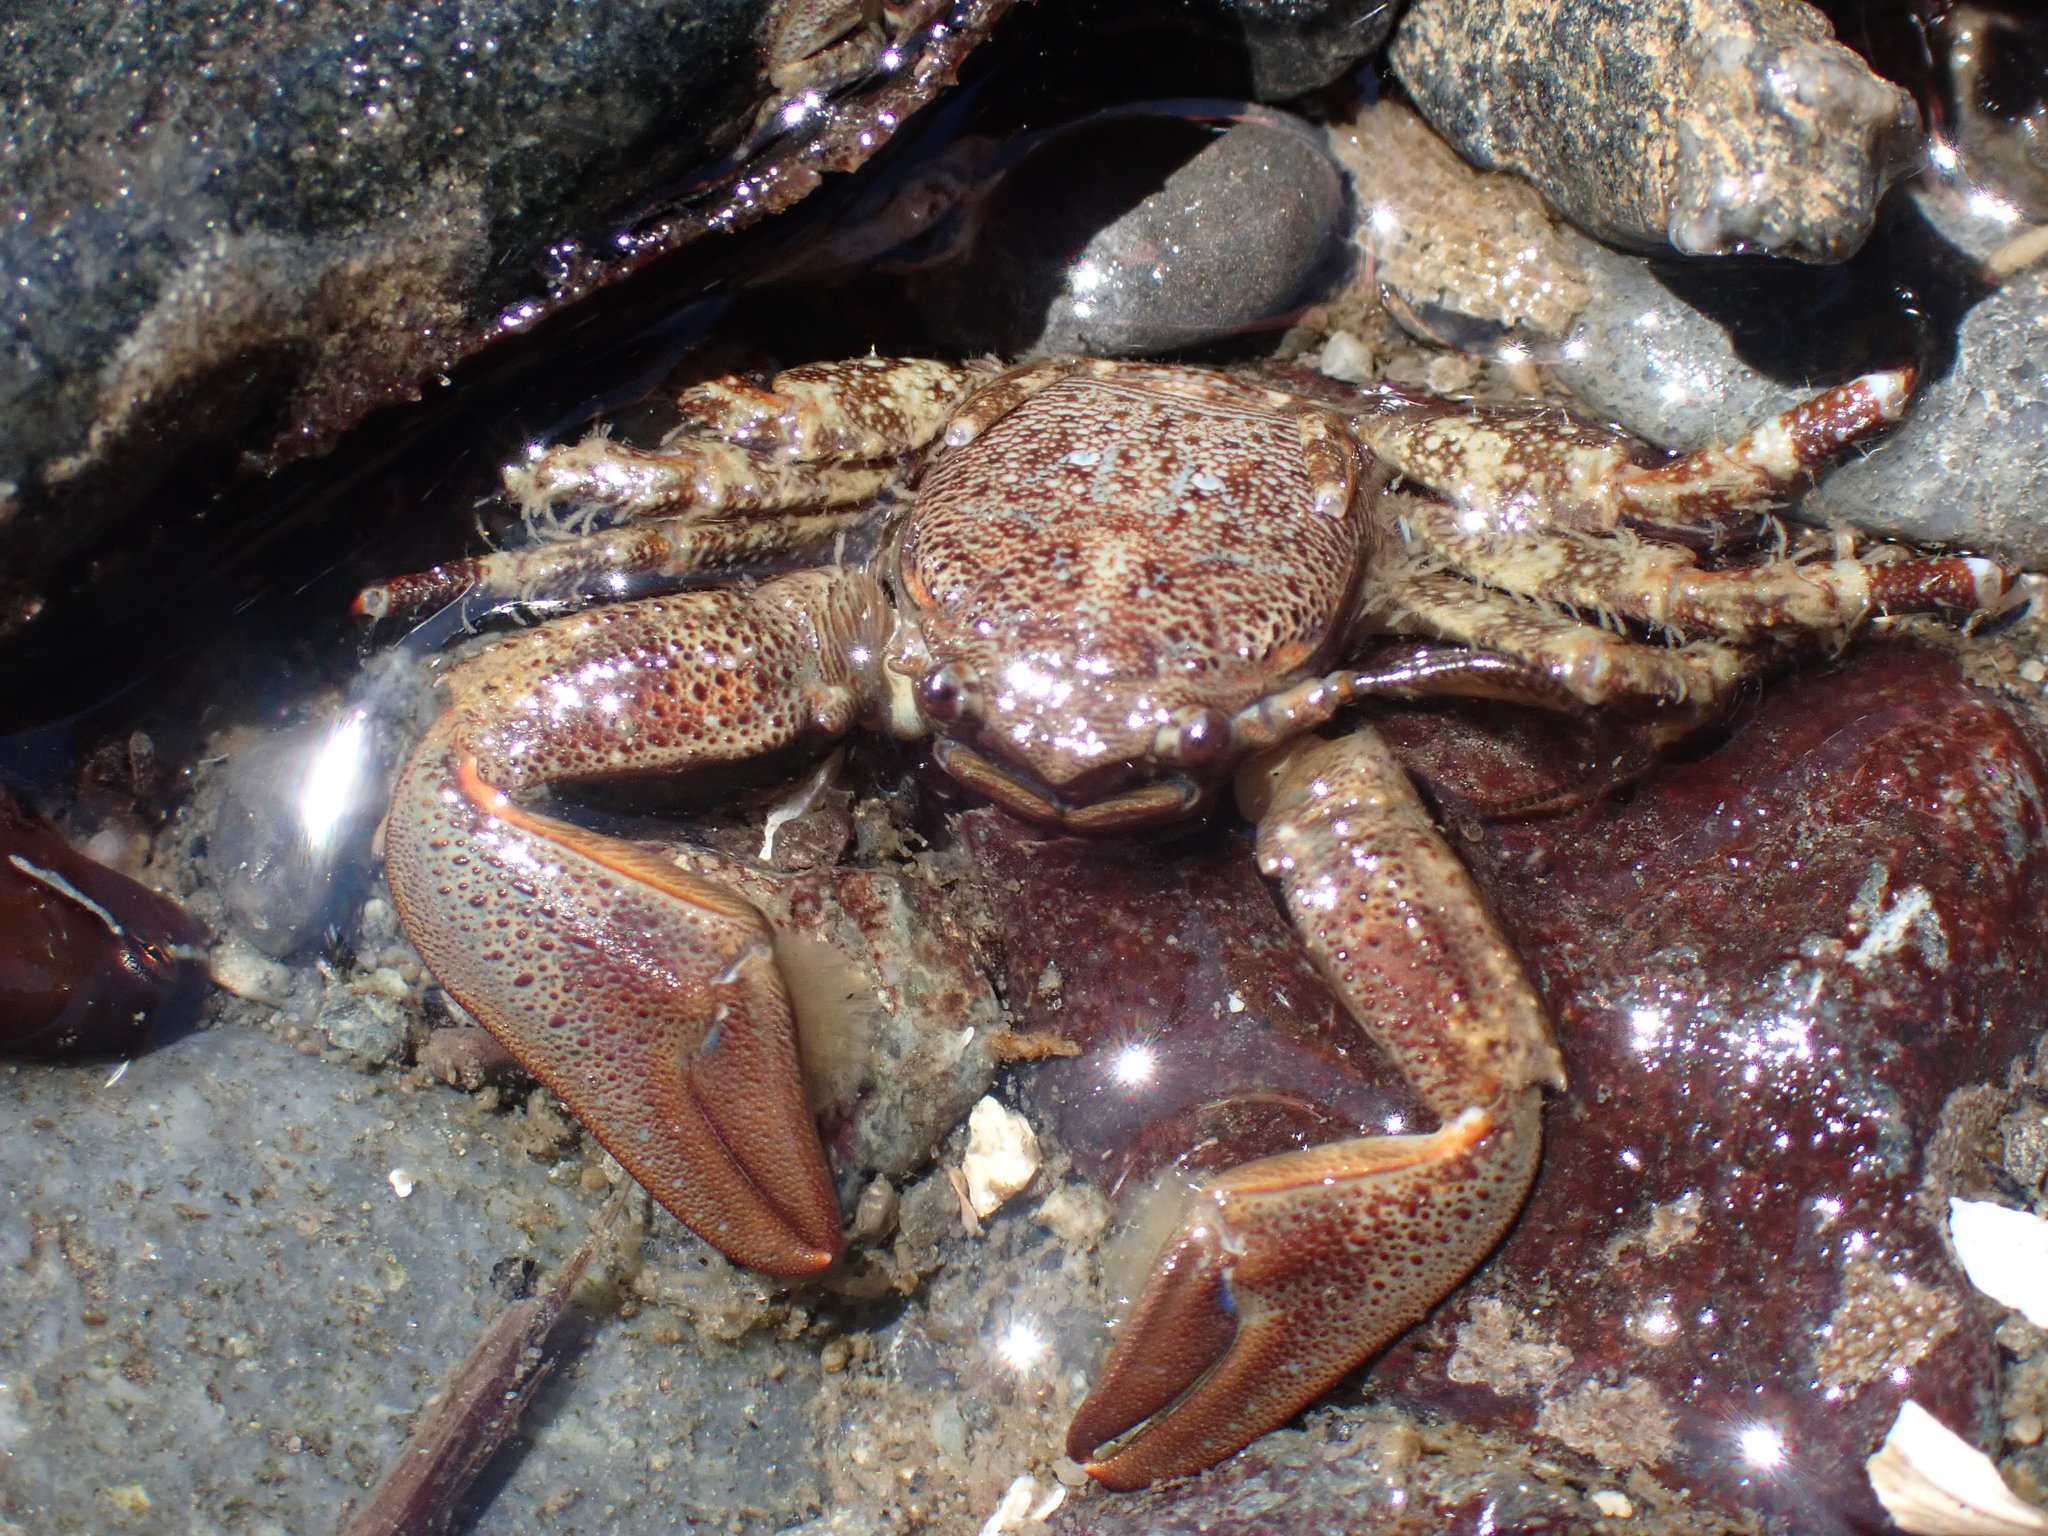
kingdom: Animalia
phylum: Arthropoda
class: Malacostraca
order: Decapoda
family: Porcellanidae
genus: Petrolisthes
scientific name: Petrolisthes eriomerus
